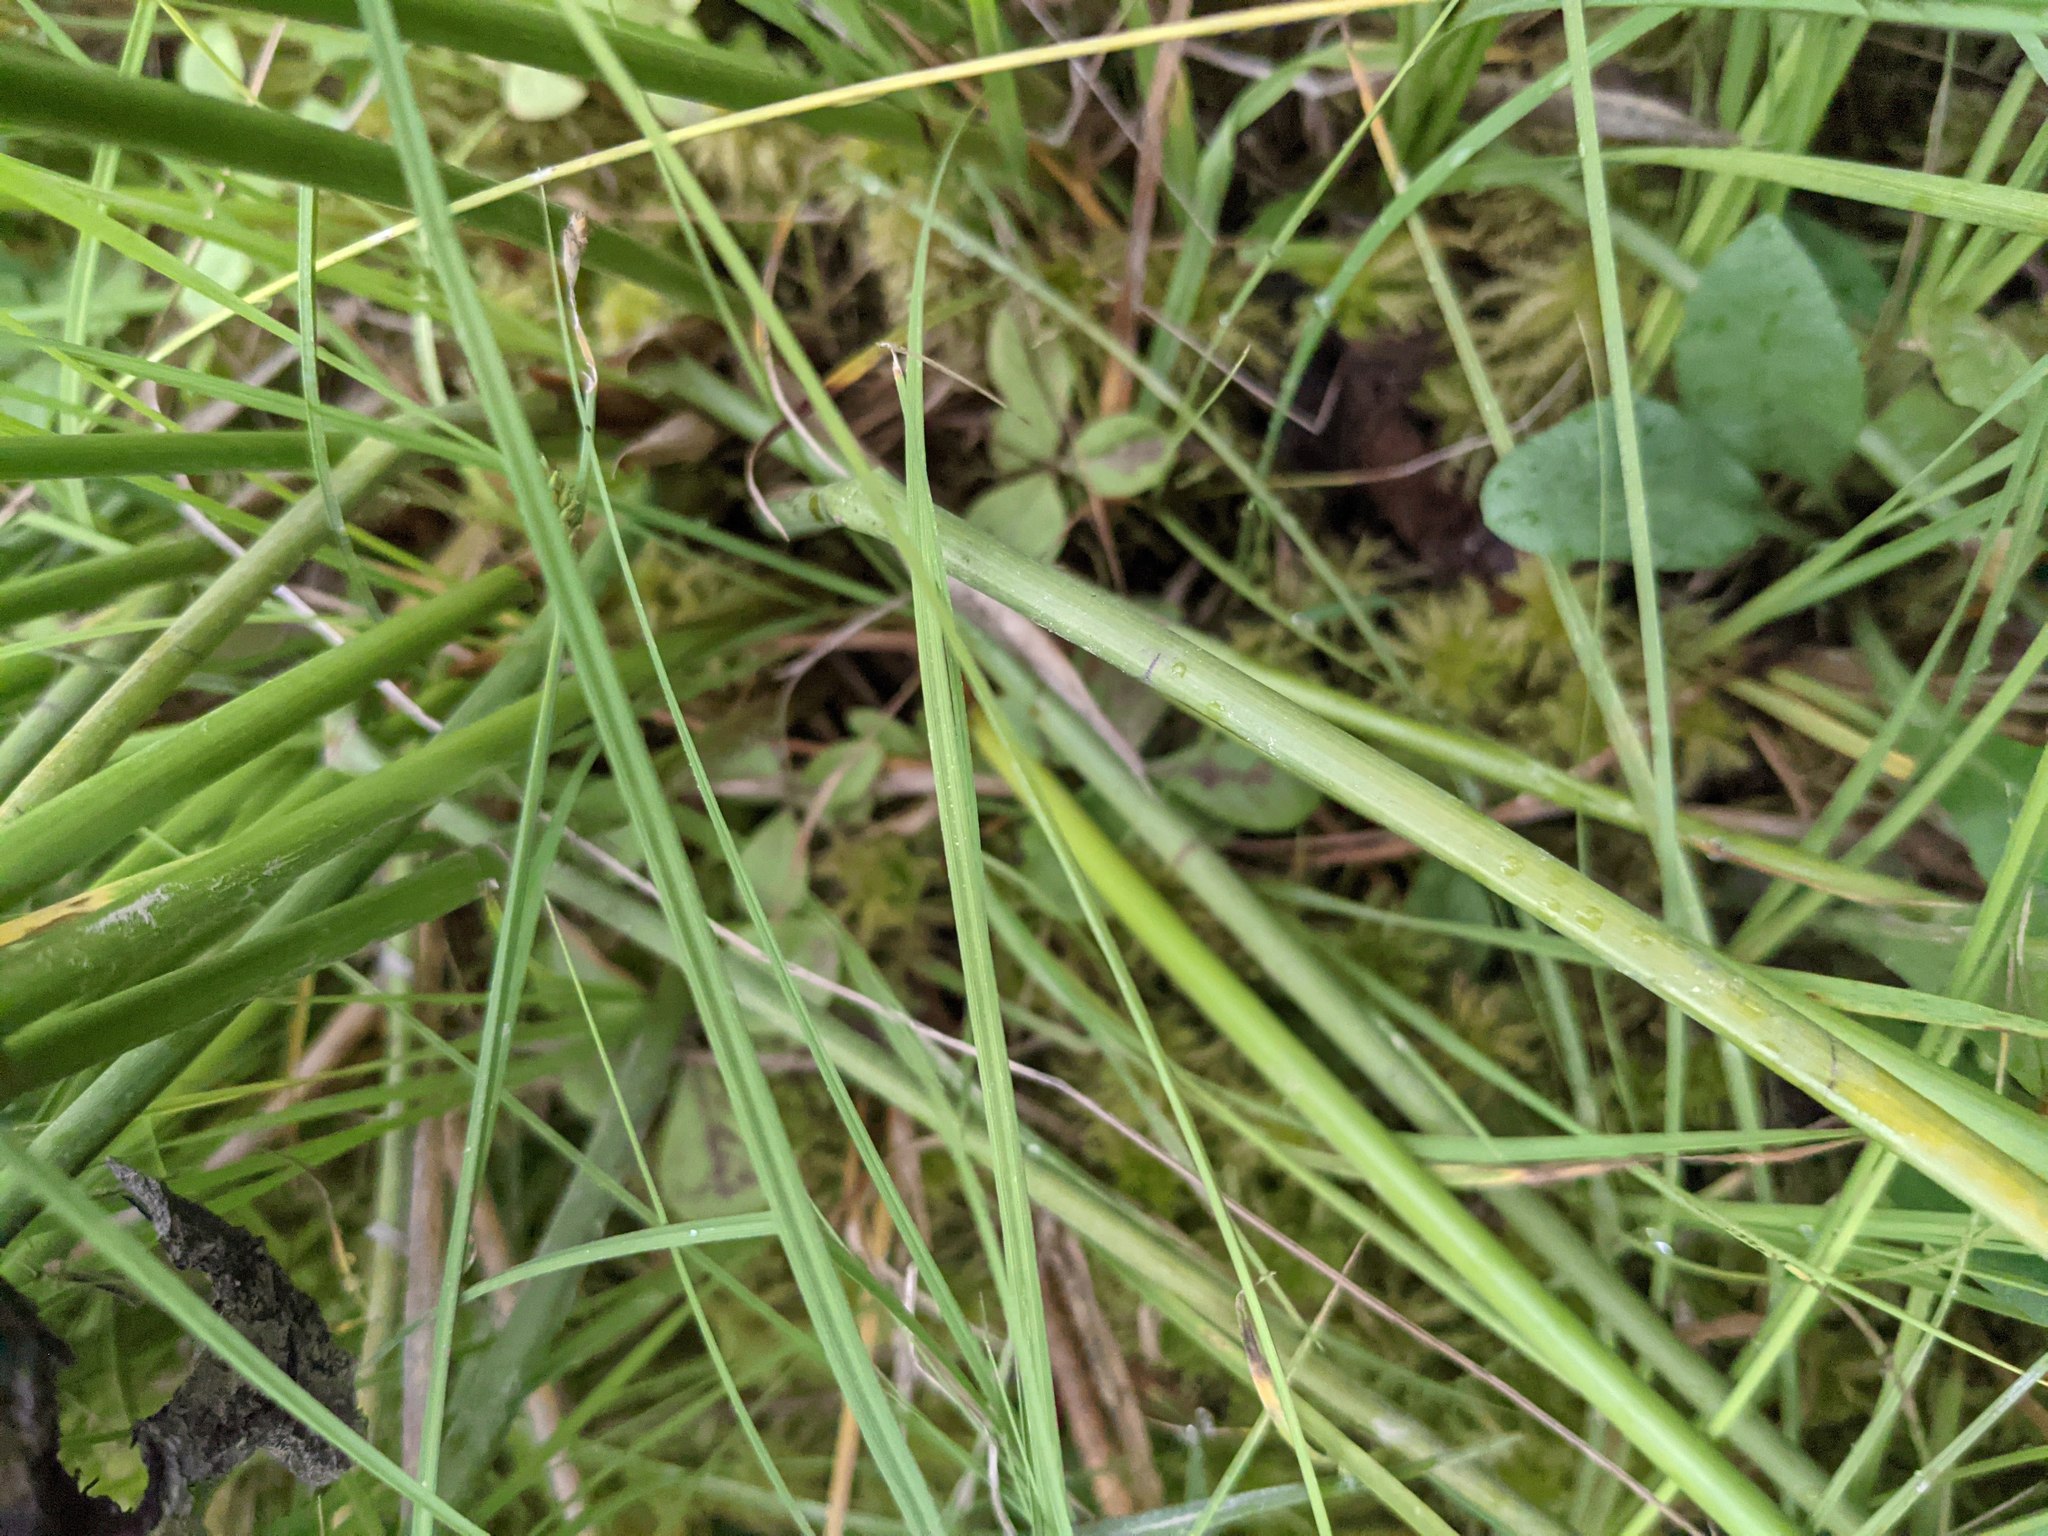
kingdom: Plantae
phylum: Tracheophyta
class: Liliopsida
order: Poales
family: Juncaceae
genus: Juncus
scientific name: Juncus effusus
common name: Soft rush
